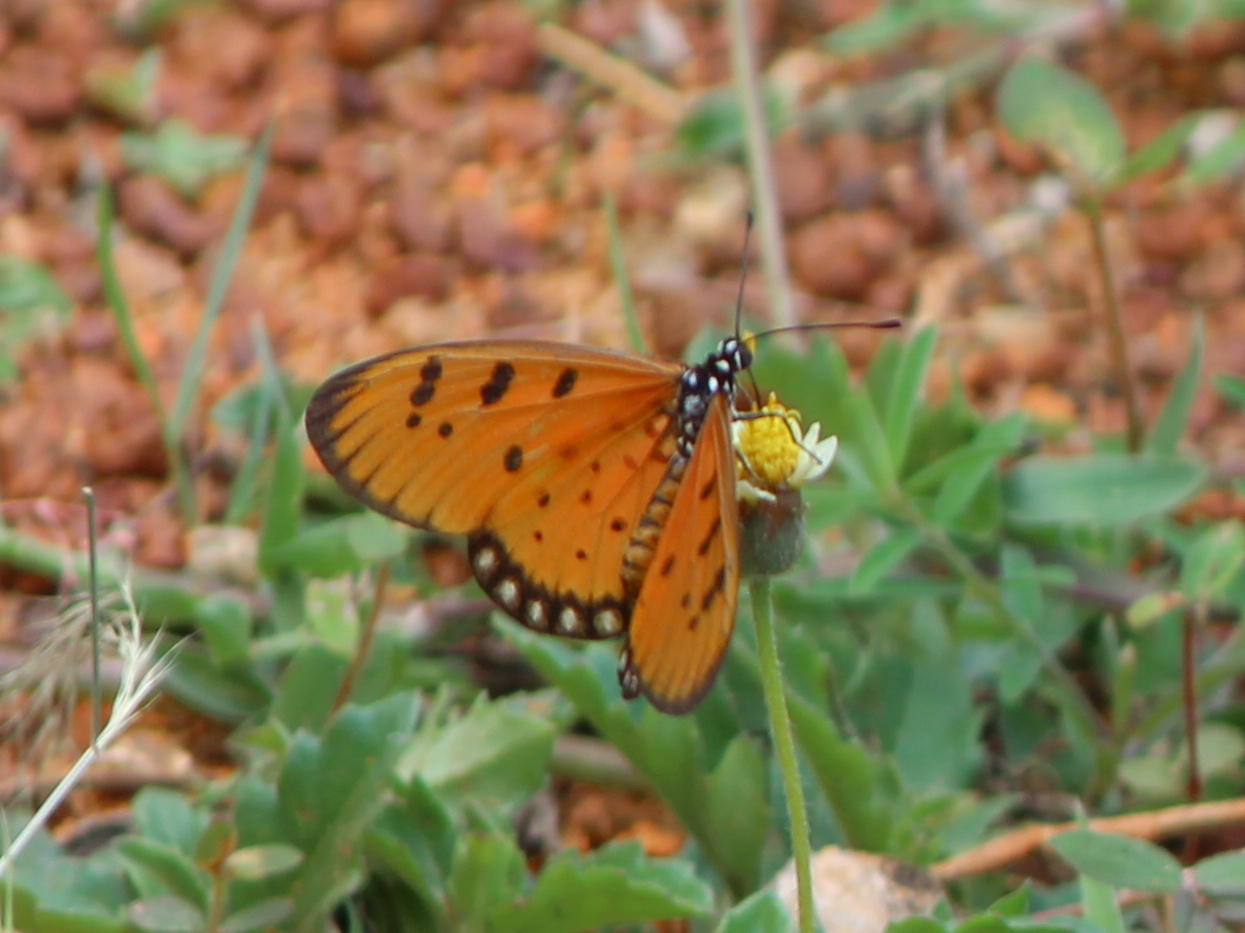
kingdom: Animalia
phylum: Arthropoda
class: Insecta
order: Lepidoptera
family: Nymphalidae
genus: Acraea
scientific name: Acraea terpsicore
